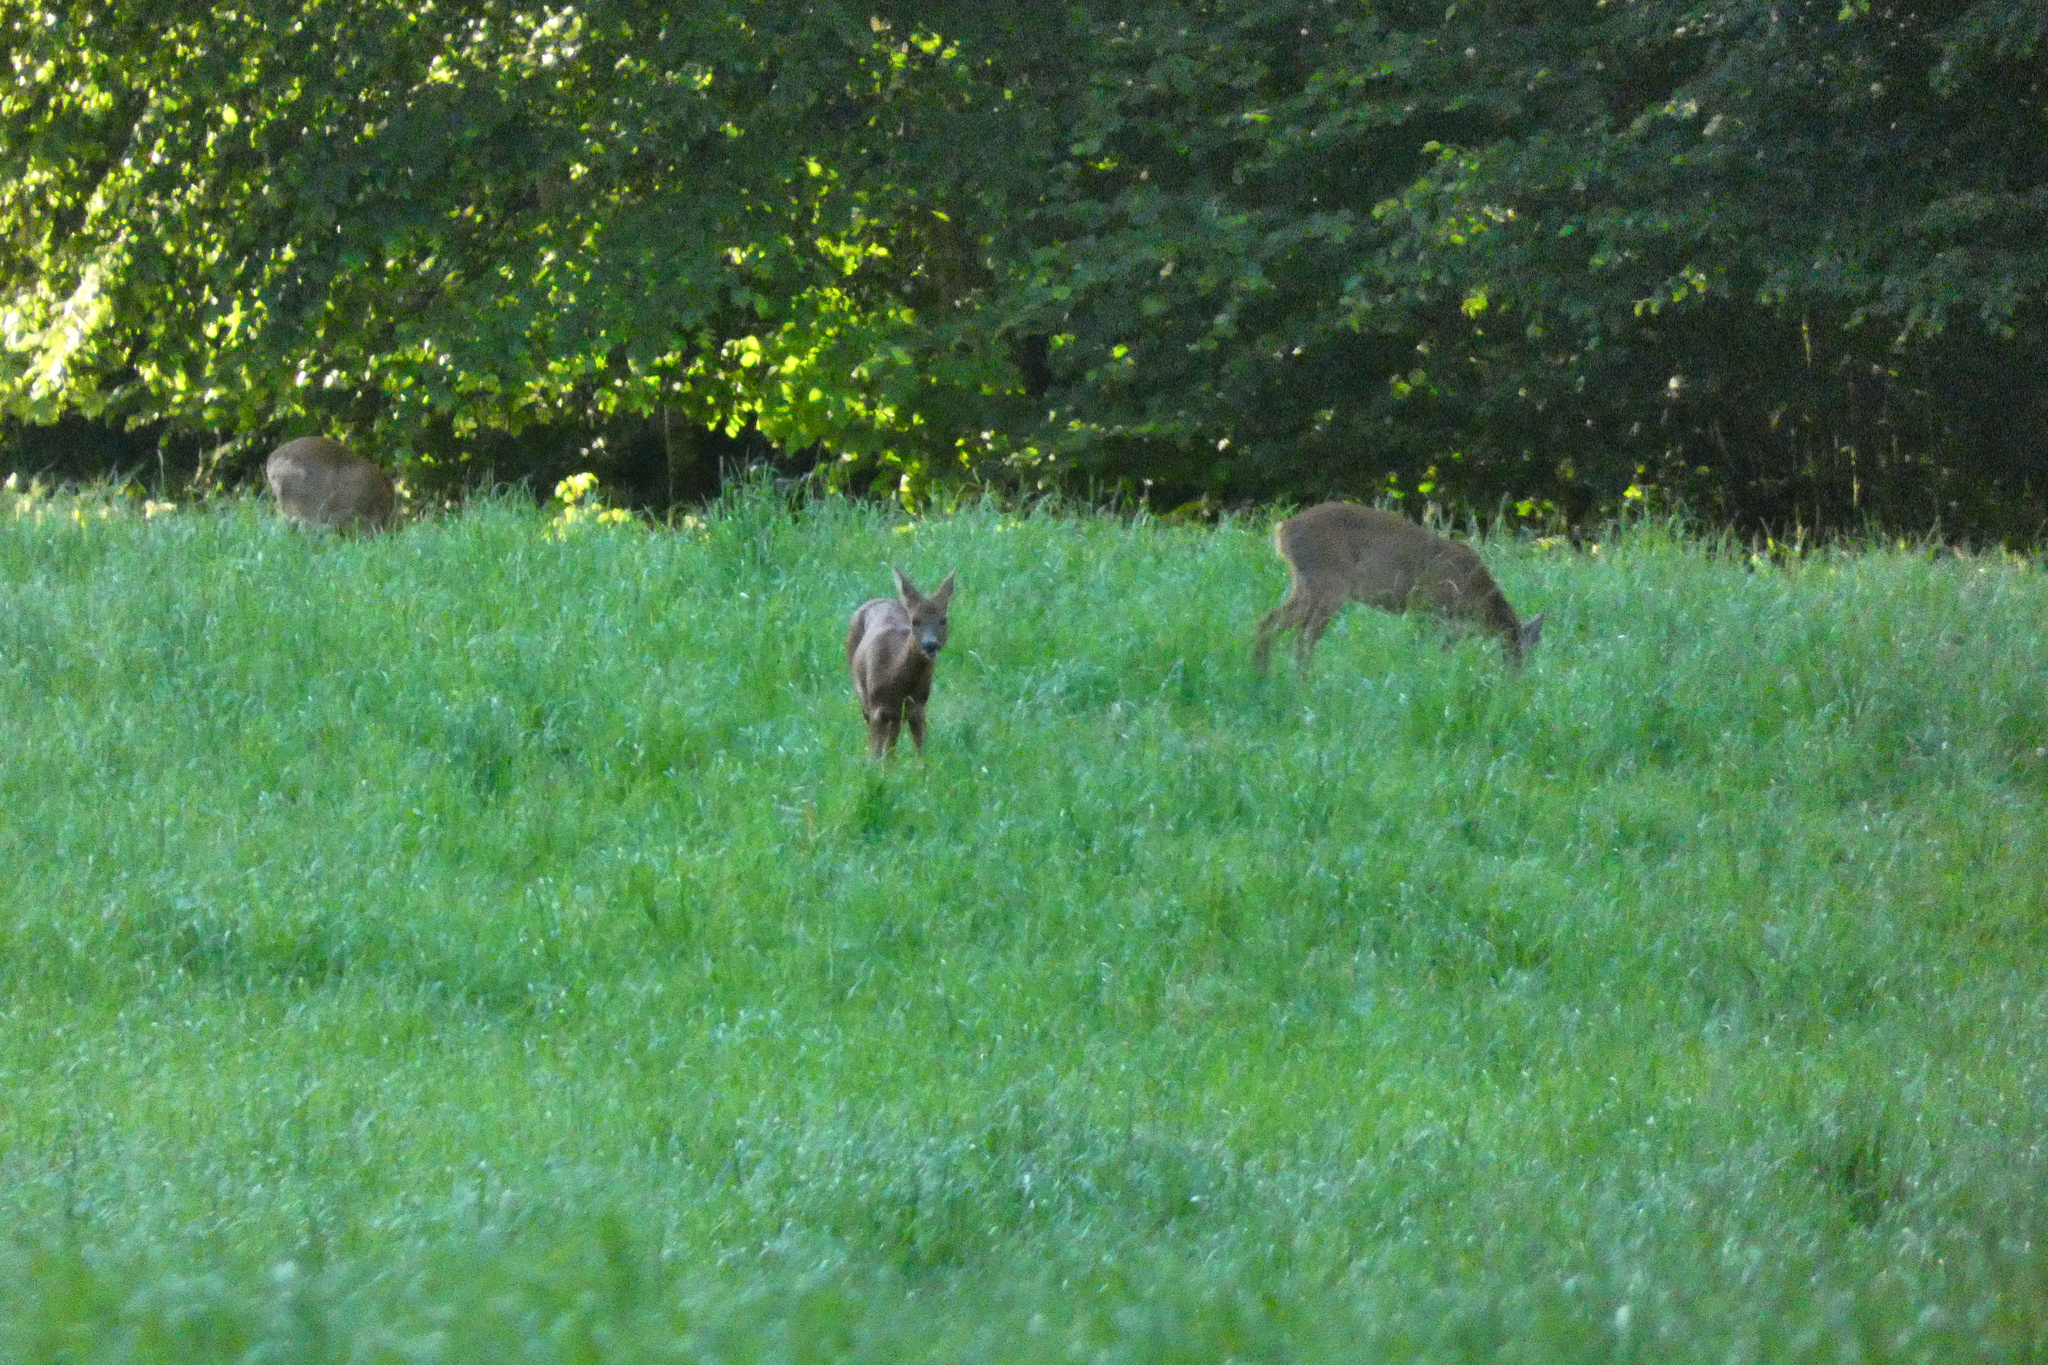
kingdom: Animalia
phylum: Chordata
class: Mammalia
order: Artiodactyla
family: Cervidae
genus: Capreolus
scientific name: Capreolus capreolus
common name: Western roe deer
